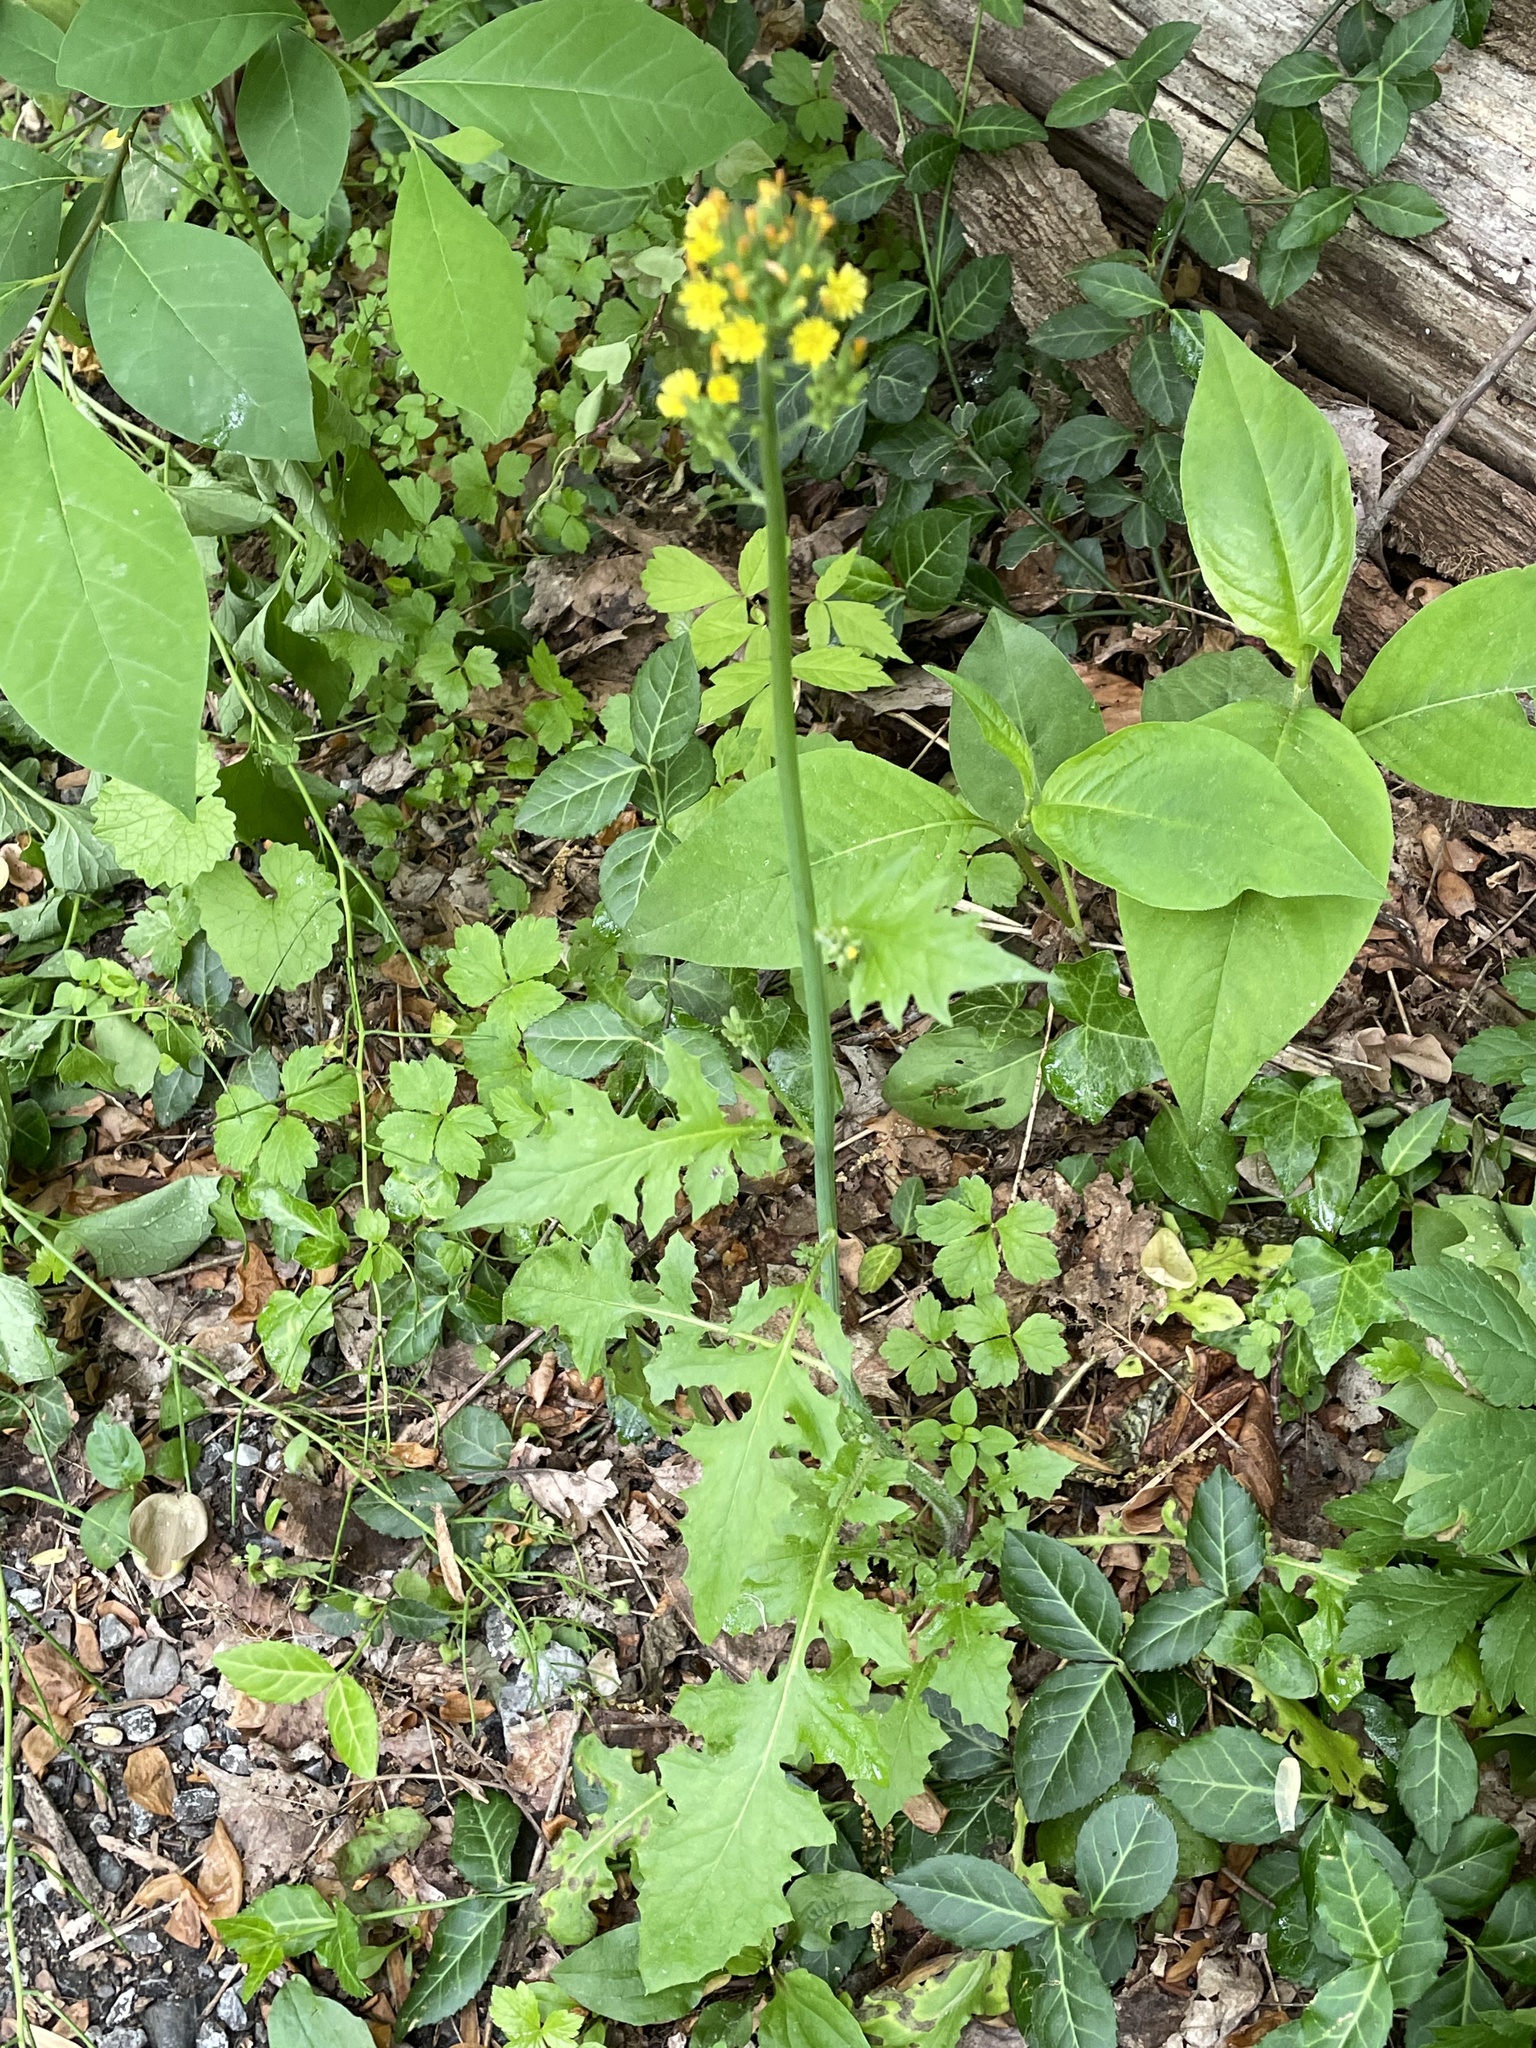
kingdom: Plantae
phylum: Tracheophyta
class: Magnoliopsida
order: Asterales
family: Asteraceae
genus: Youngia
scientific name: Youngia japonica
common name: Oriental false hawksbeard
